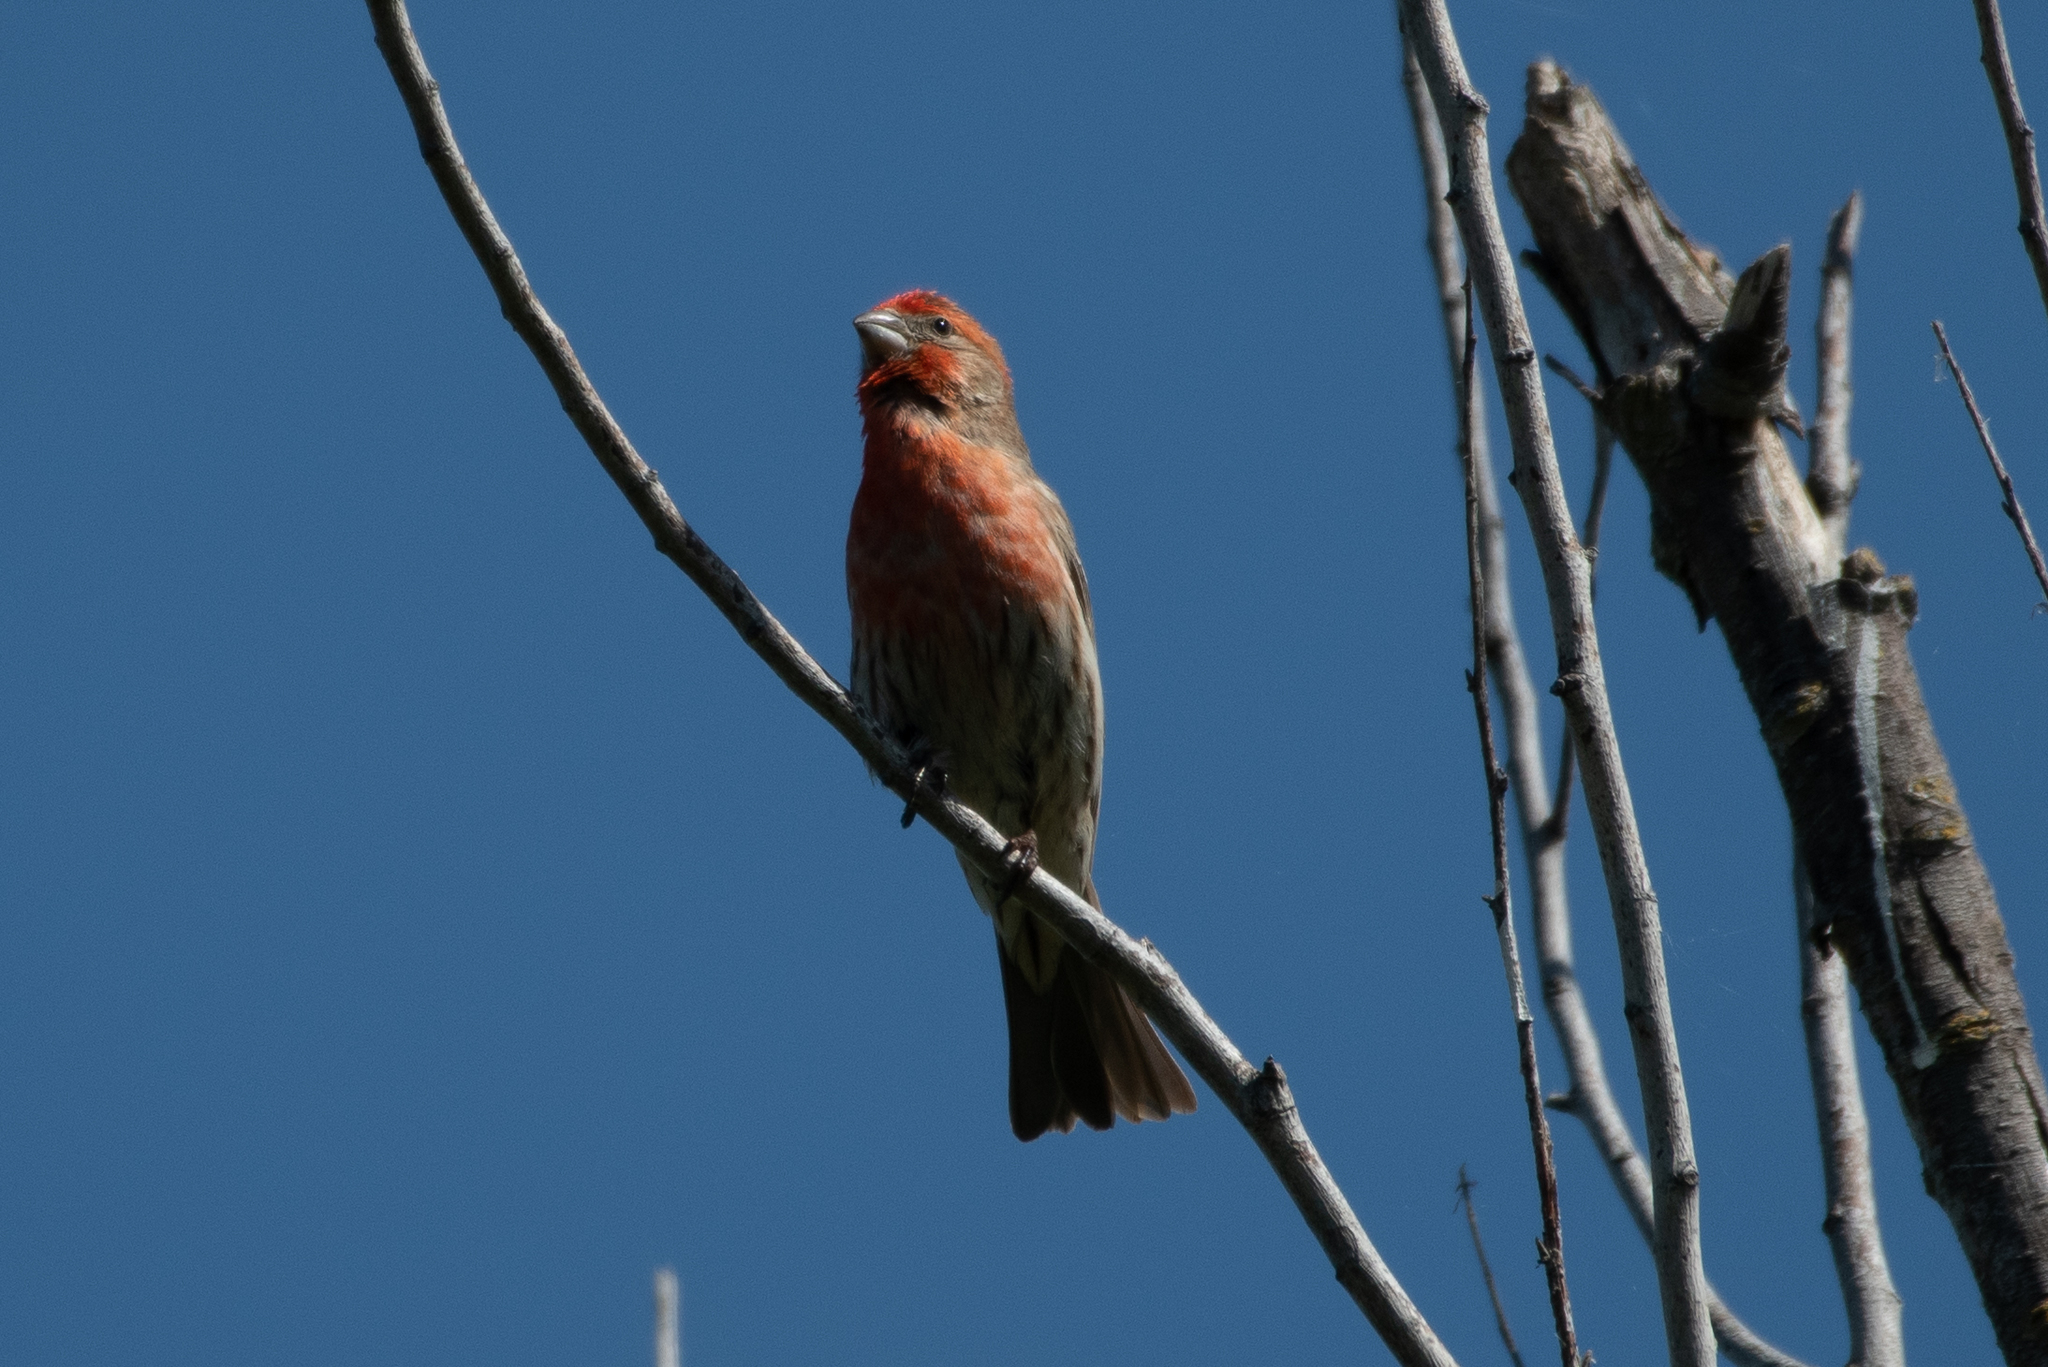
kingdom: Animalia
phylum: Chordata
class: Aves
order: Passeriformes
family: Fringillidae
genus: Haemorhous
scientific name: Haemorhous mexicanus
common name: House finch
